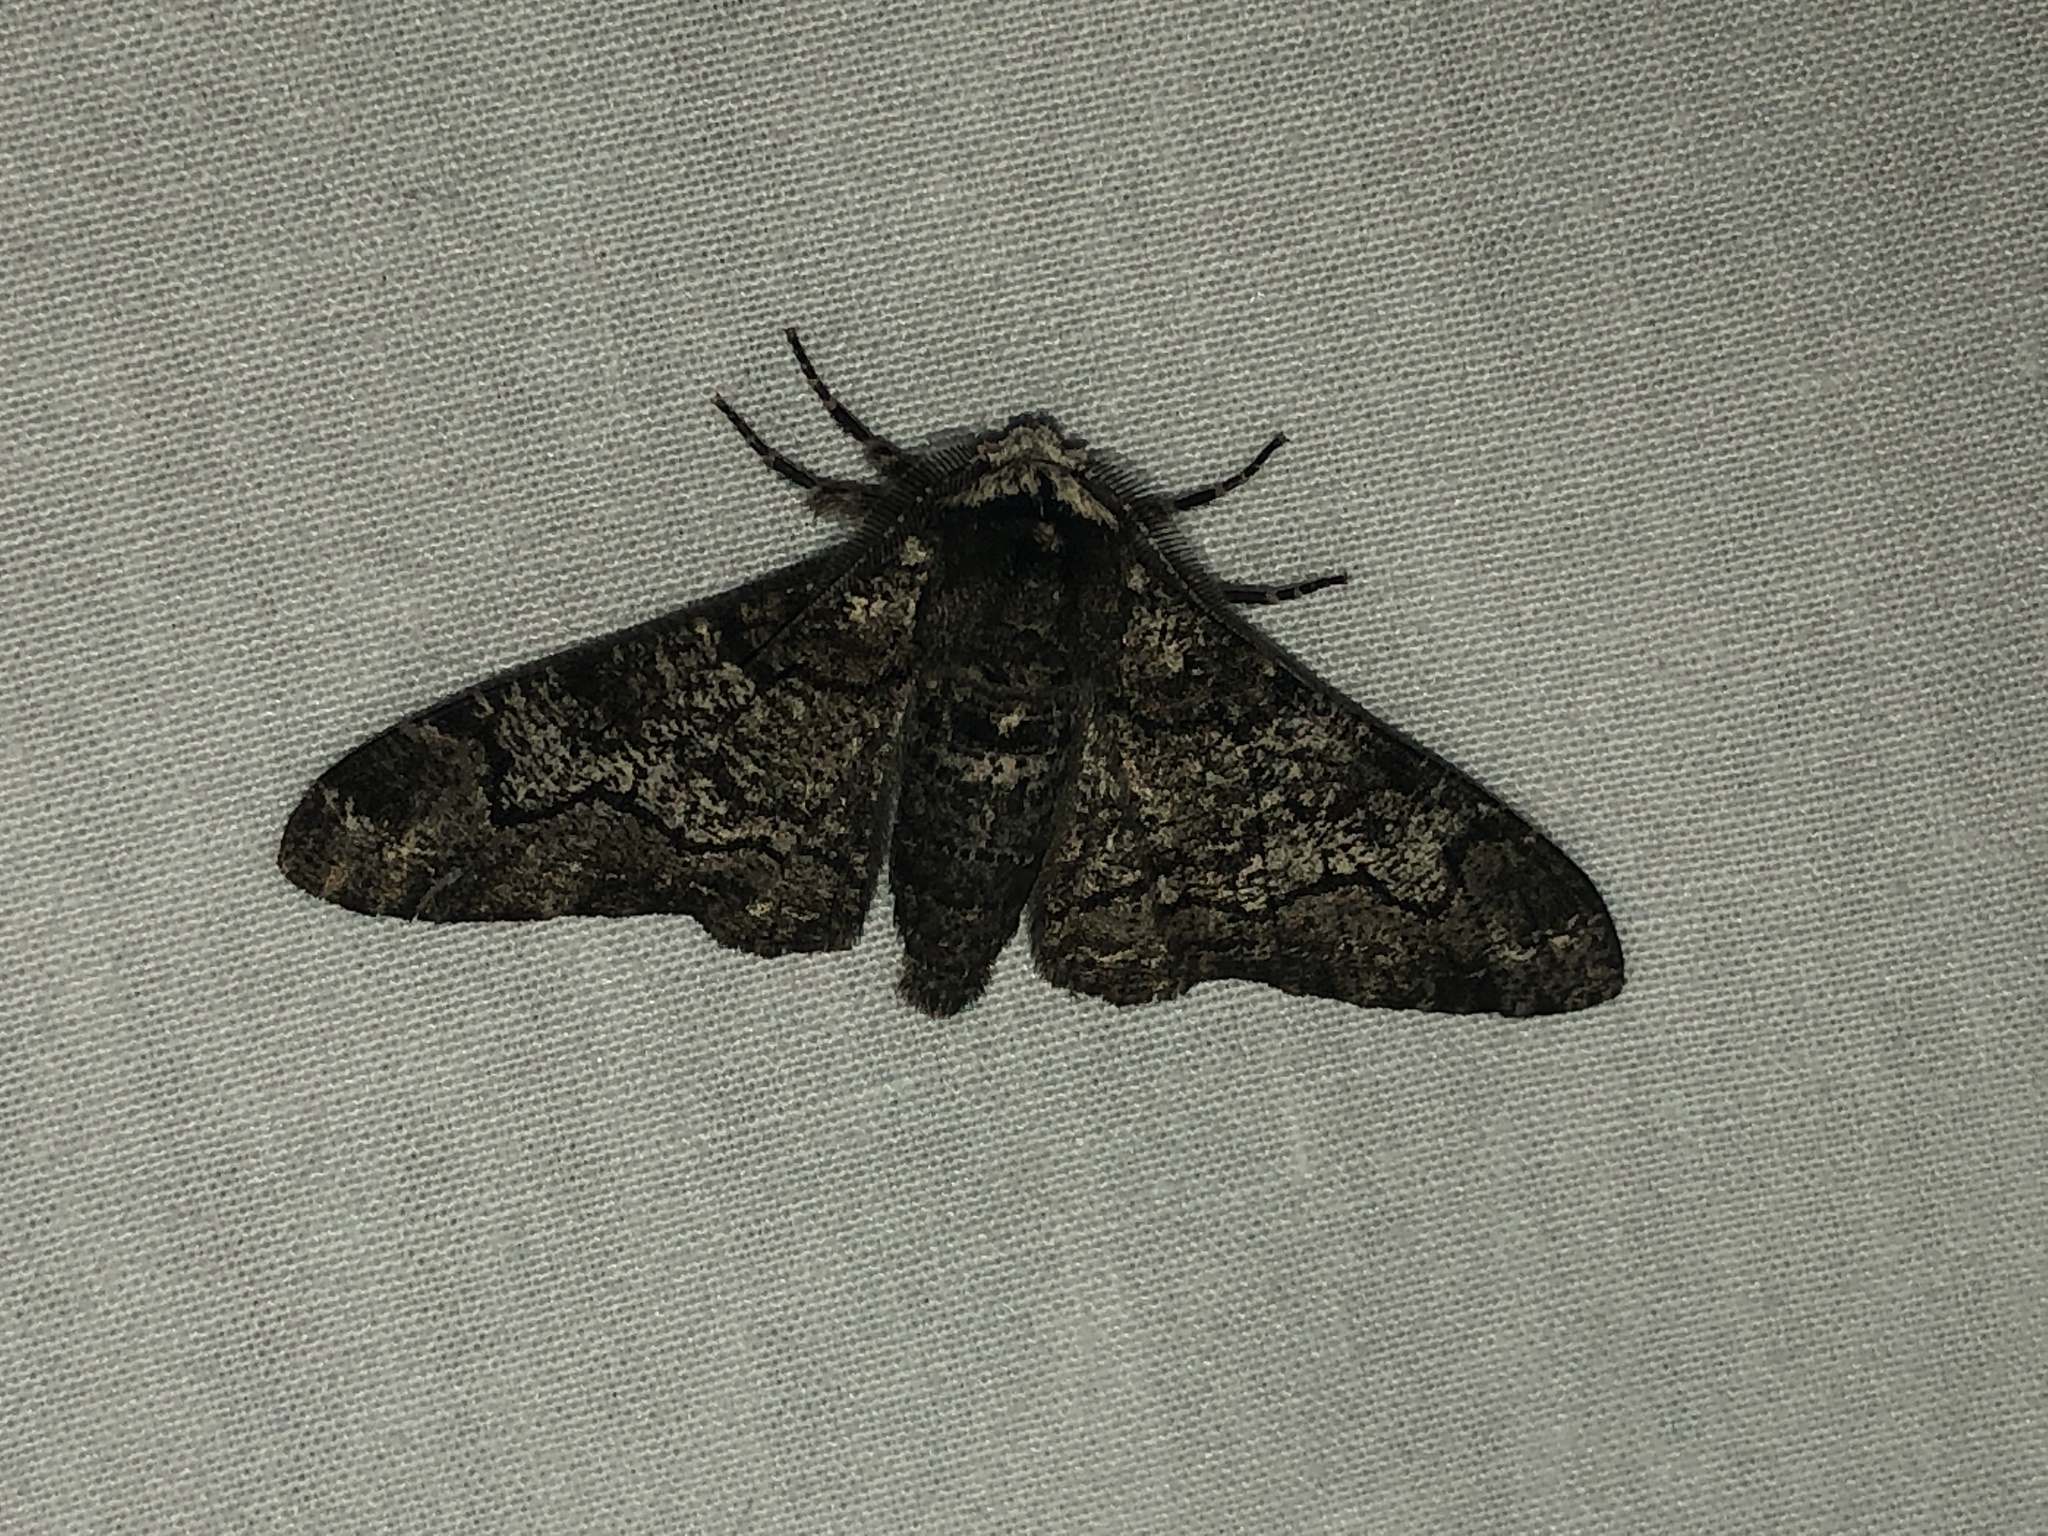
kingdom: Animalia
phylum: Arthropoda
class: Insecta
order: Lepidoptera
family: Geometridae
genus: Biston
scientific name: Biston betularia
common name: Peppered moth
